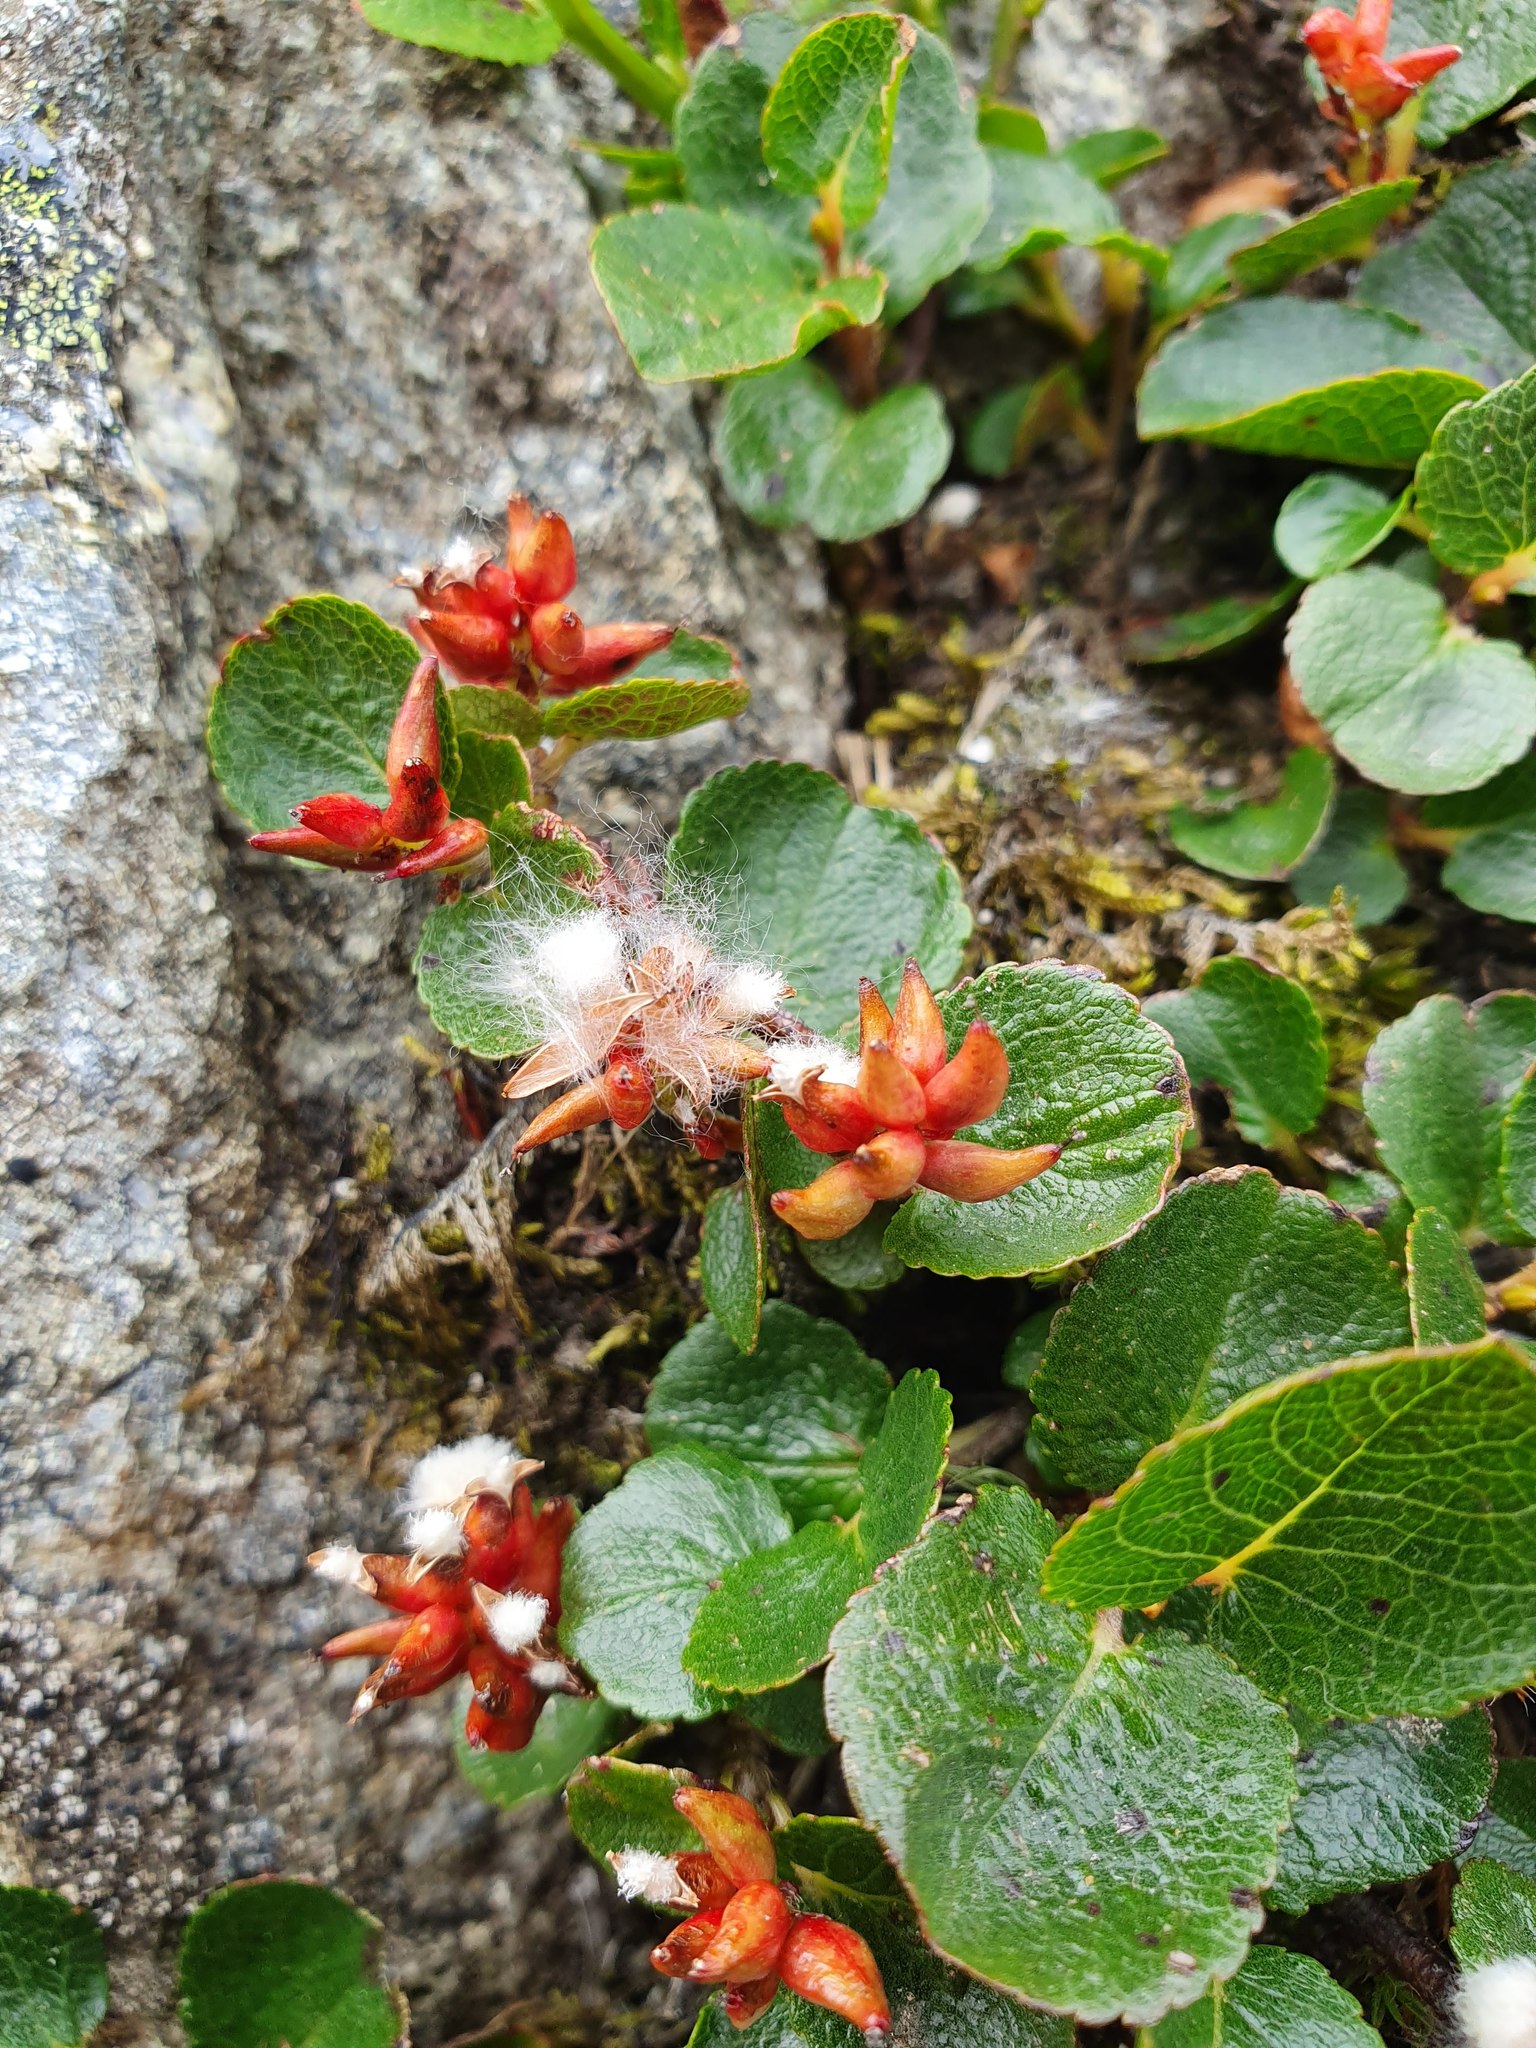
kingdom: Plantae
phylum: Tracheophyta
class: Magnoliopsida
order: Malpighiales
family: Salicaceae
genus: Salix
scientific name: Salix herbacea
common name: Dwarf willow
